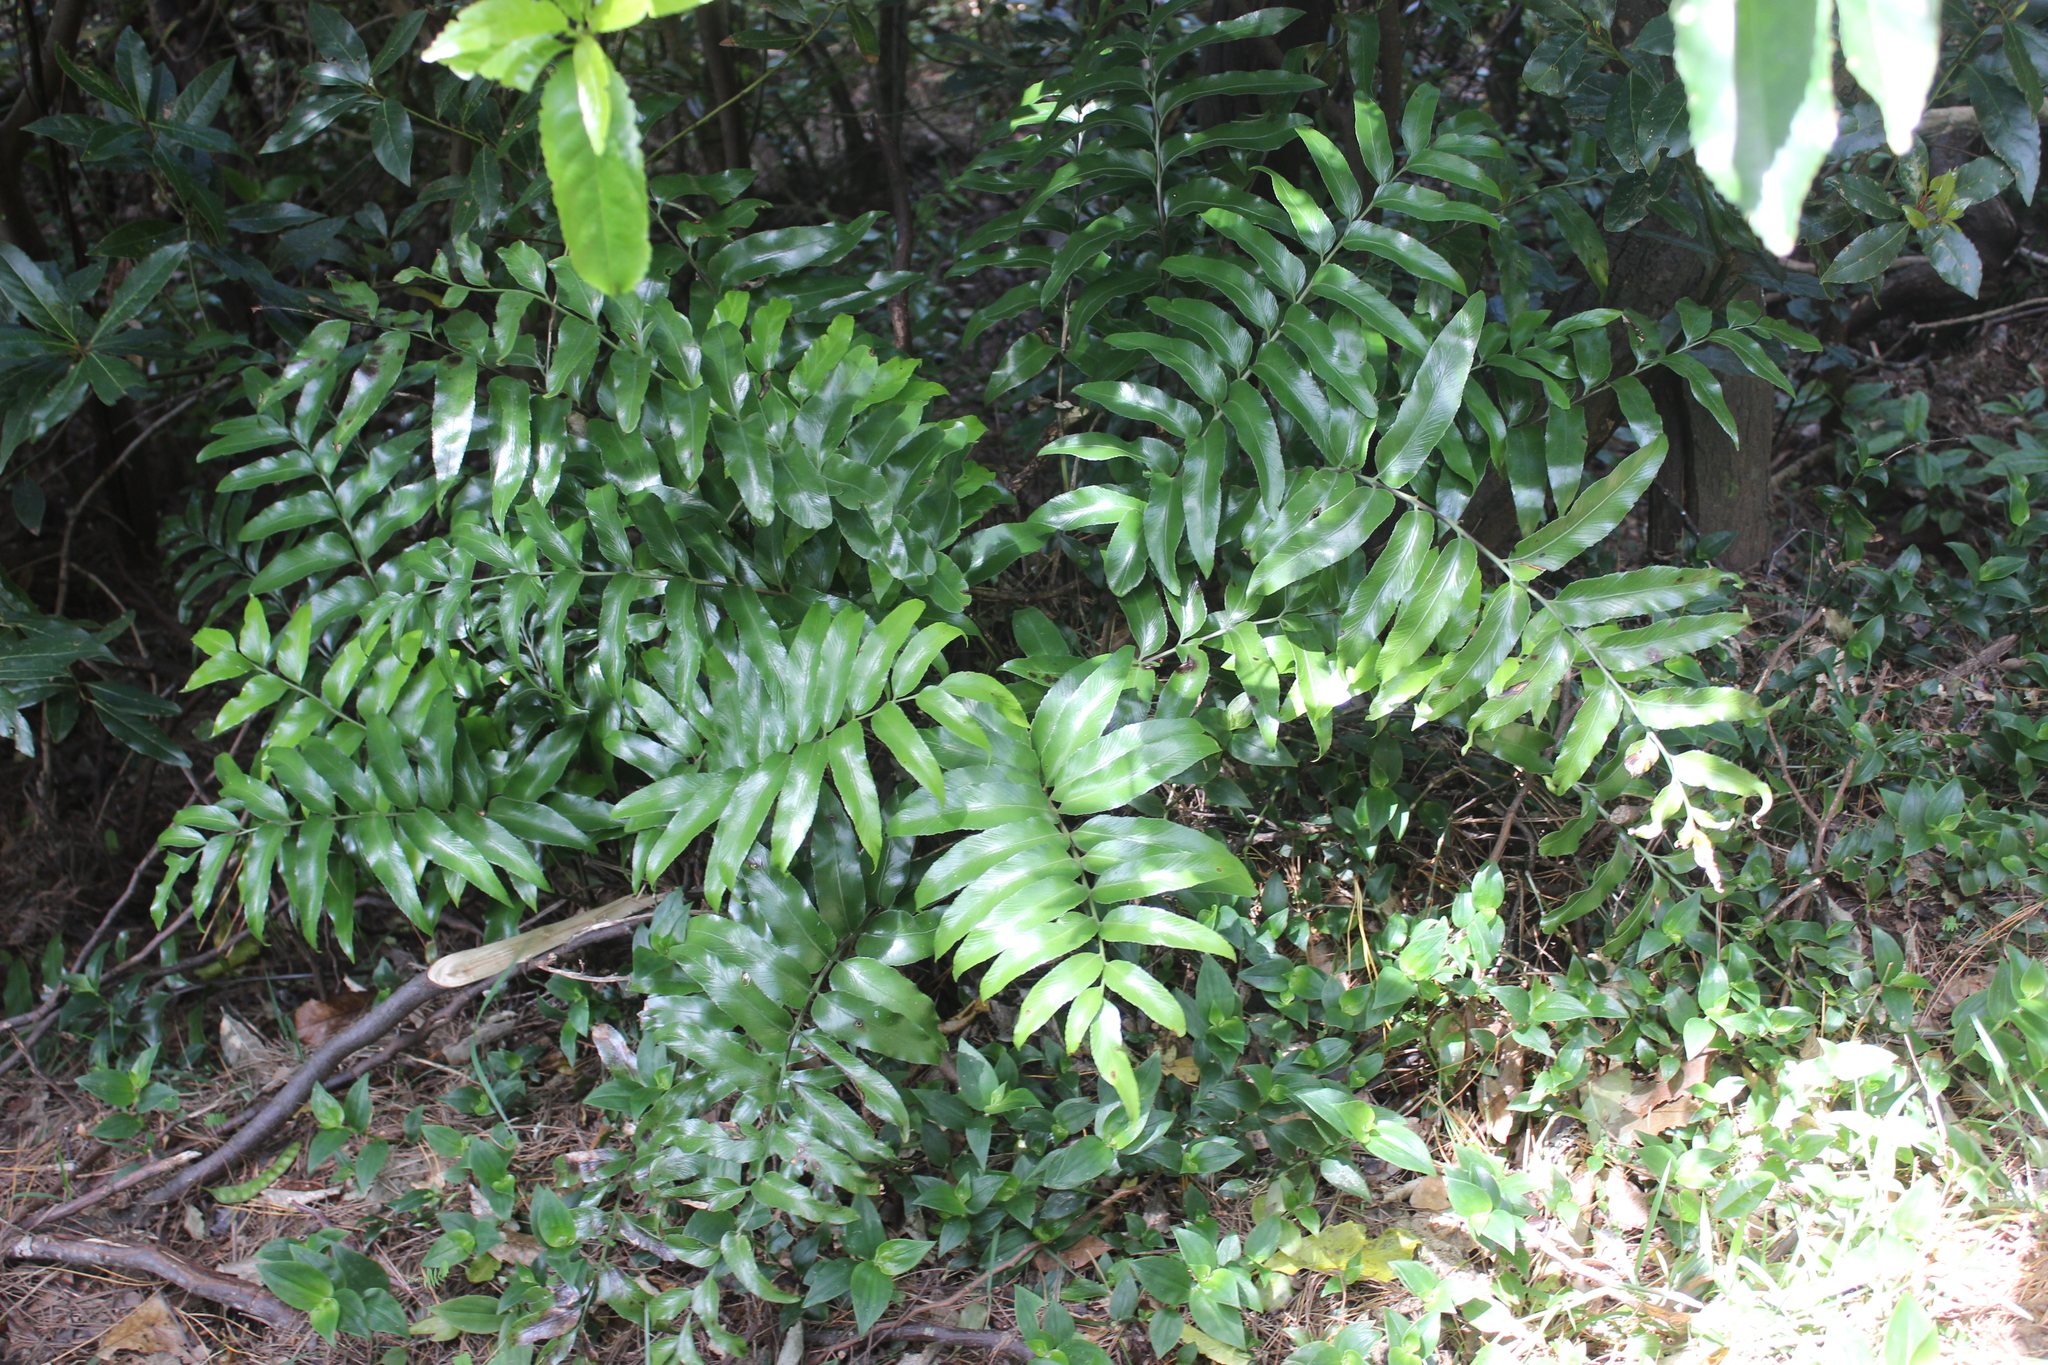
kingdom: Plantae
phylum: Tracheophyta
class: Polypodiopsida
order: Polypodiales
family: Aspleniaceae
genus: Asplenium
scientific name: Asplenium oblongifolium
